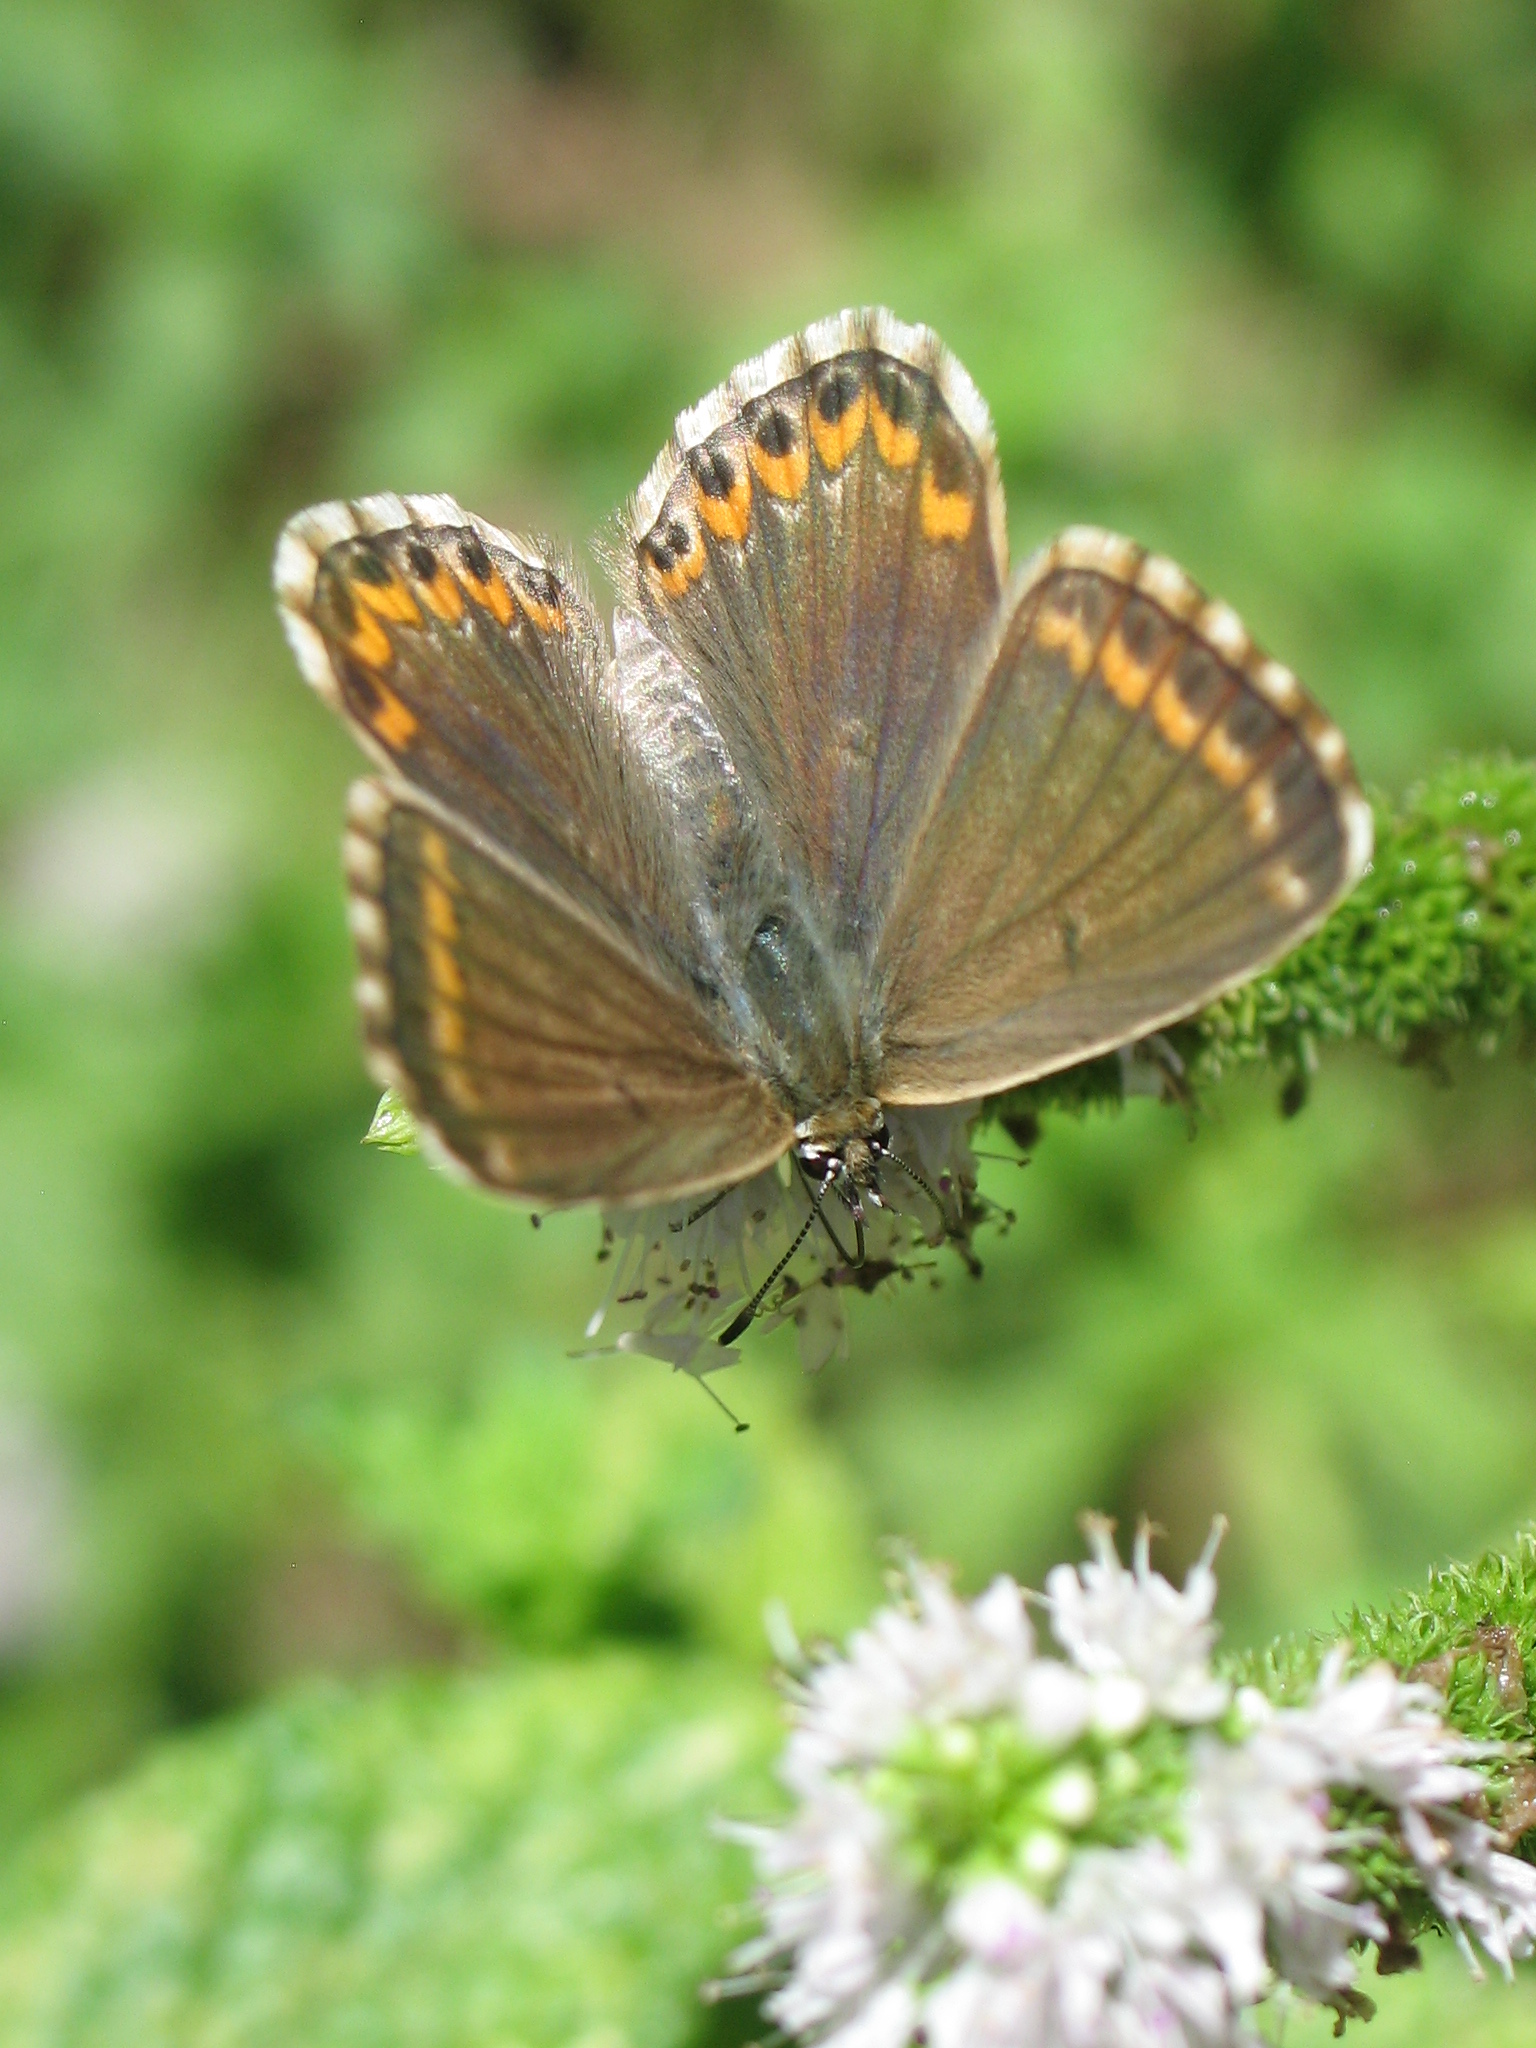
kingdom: Animalia
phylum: Arthropoda
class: Insecta
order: Lepidoptera
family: Lycaenidae
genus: Lysandra
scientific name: Lysandra bellargus
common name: Adonis blue
